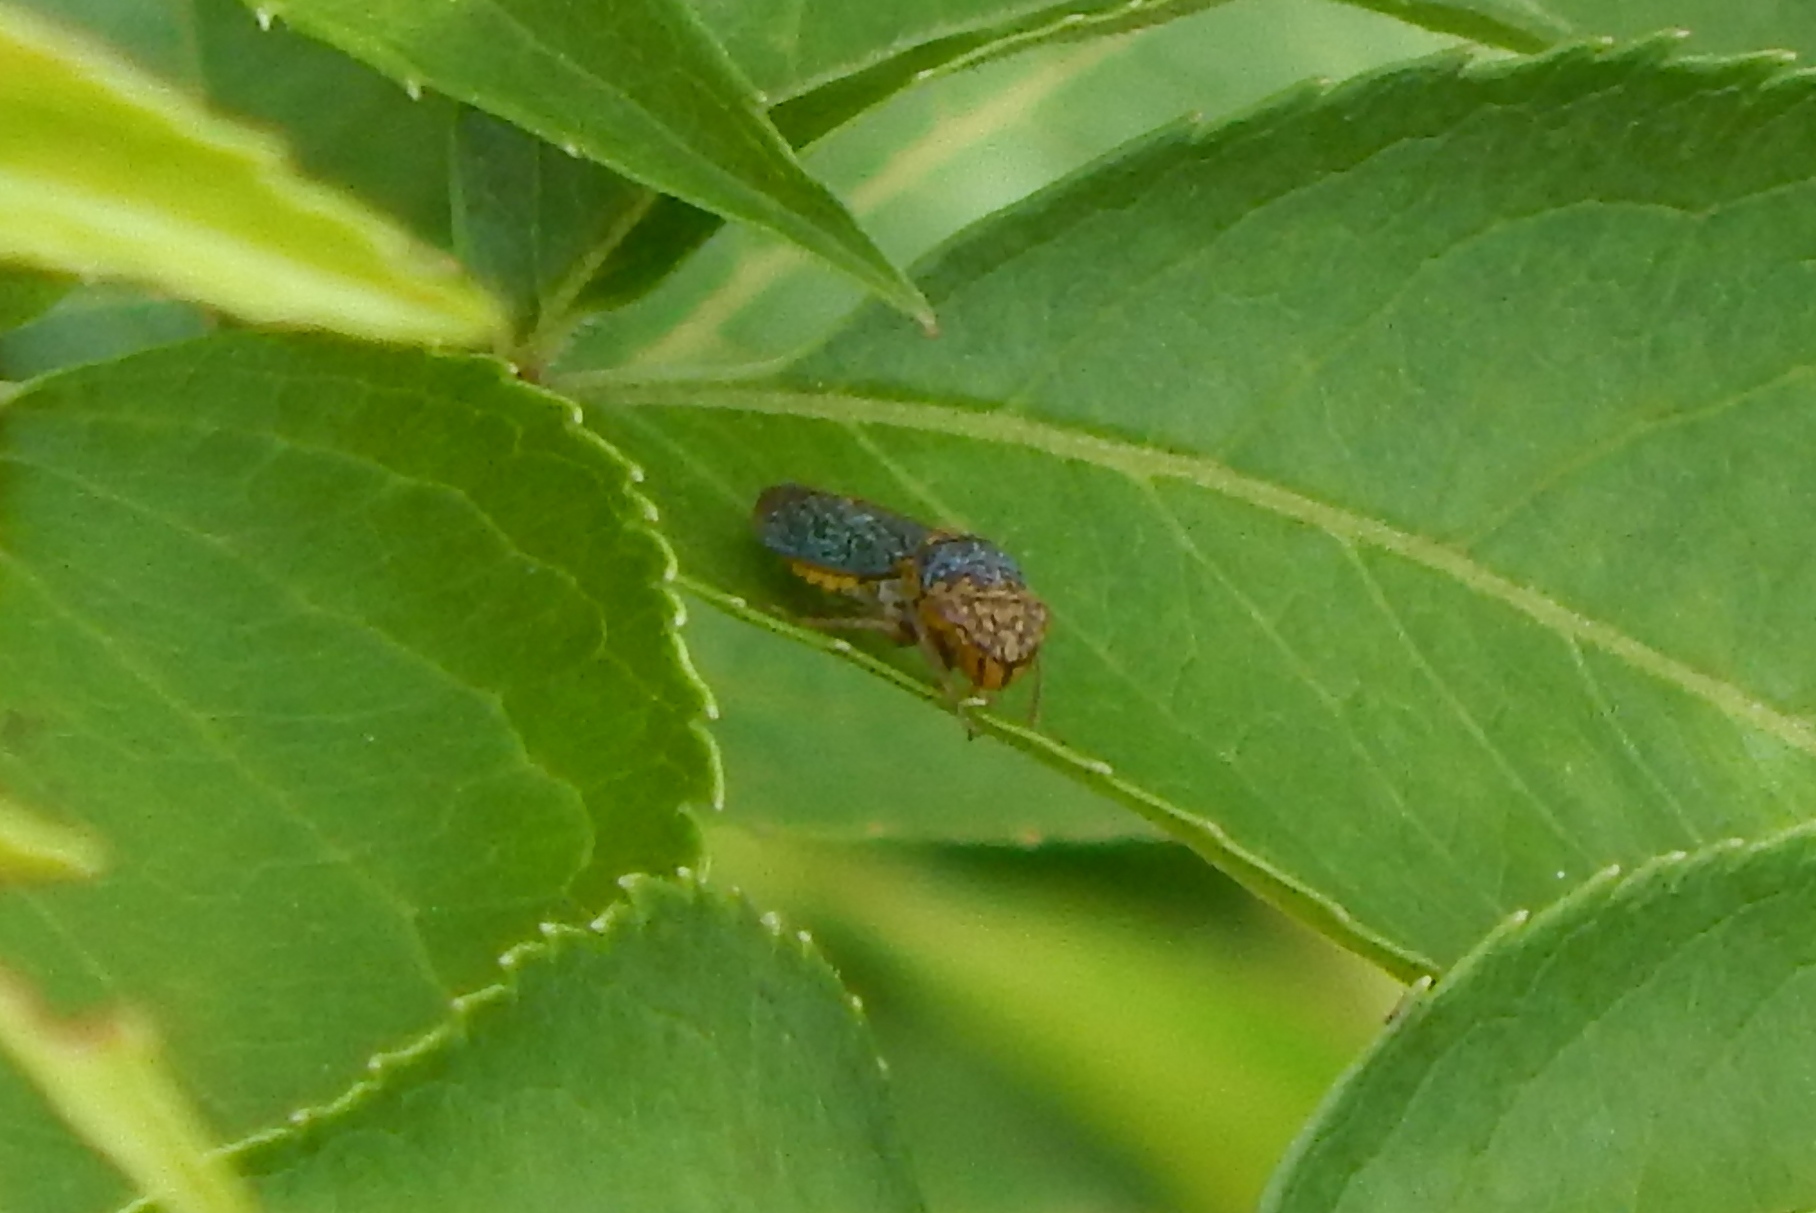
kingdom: Animalia
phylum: Arthropoda
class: Insecta
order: Hemiptera
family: Cicadellidae
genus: Oncometopia
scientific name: Oncometopia orbona
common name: Broad-headed sharpshooter
